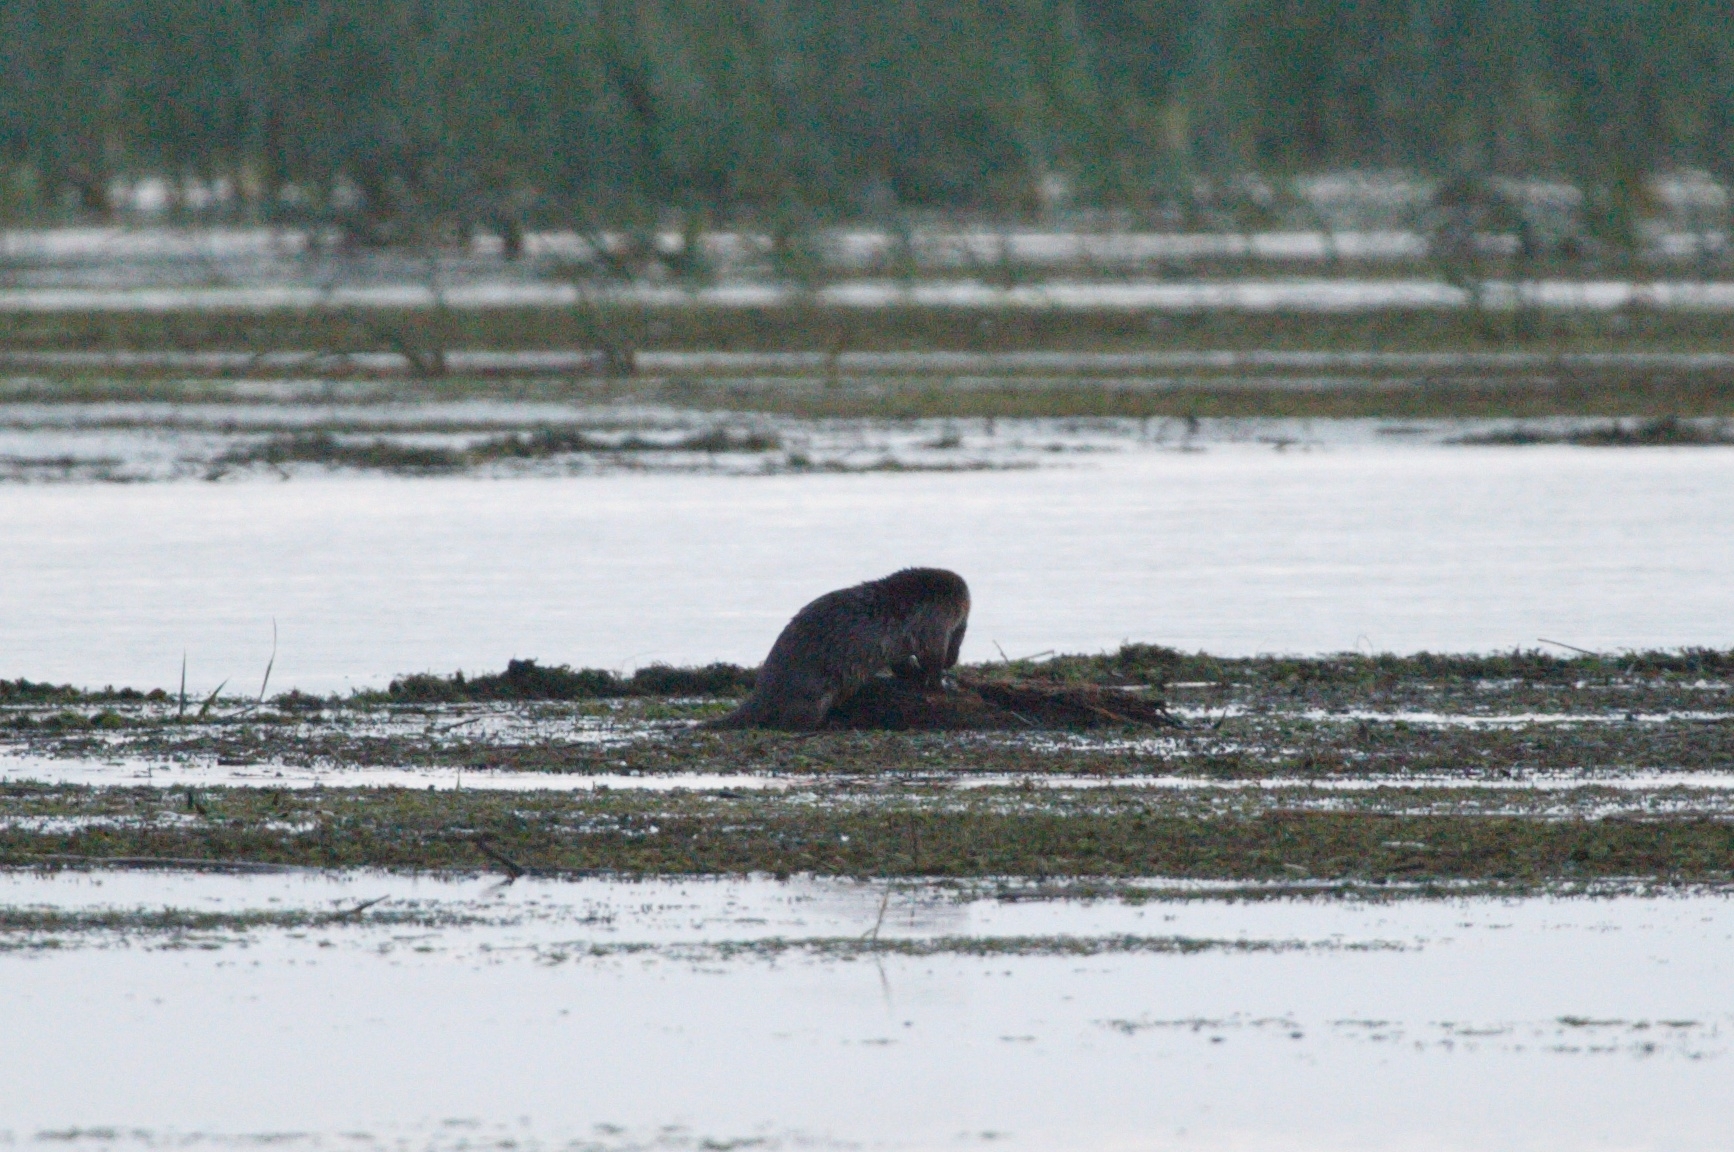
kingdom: Animalia
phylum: Chordata
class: Mammalia
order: Carnivora
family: Mustelidae
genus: Lutra
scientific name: Lutra lutra
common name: European otter
